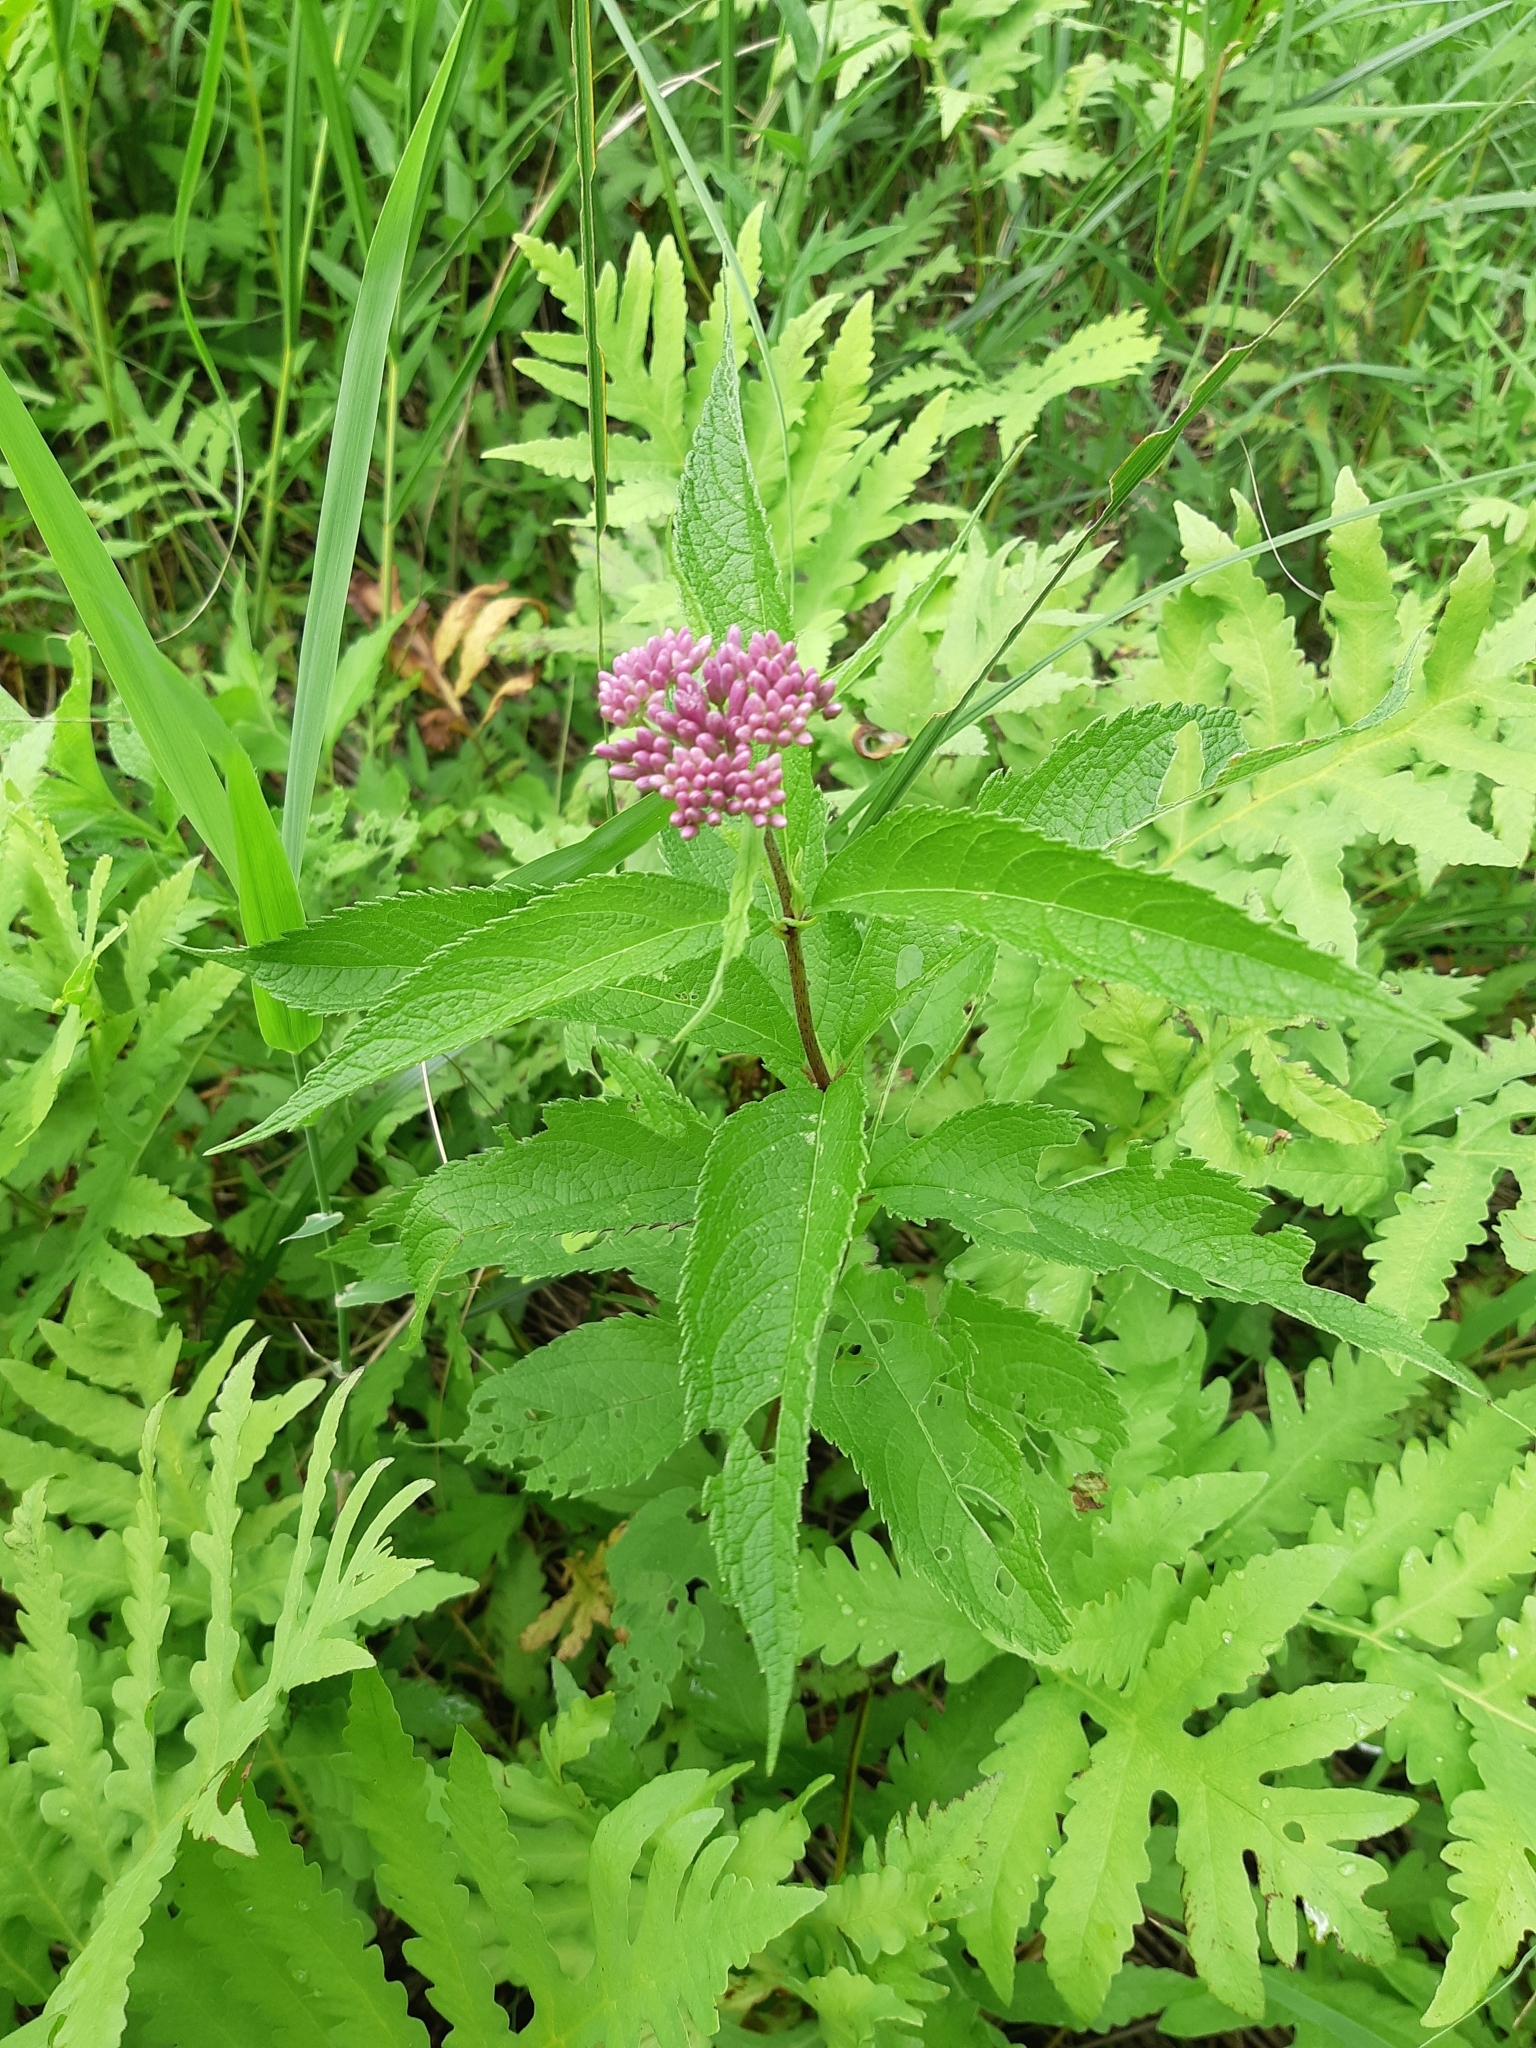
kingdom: Plantae
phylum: Tracheophyta
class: Magnoliopsida
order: Asterales
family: Asteraceae
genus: Eutrochium
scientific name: Eutrochium maculatum
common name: Spotted joe pye weed
